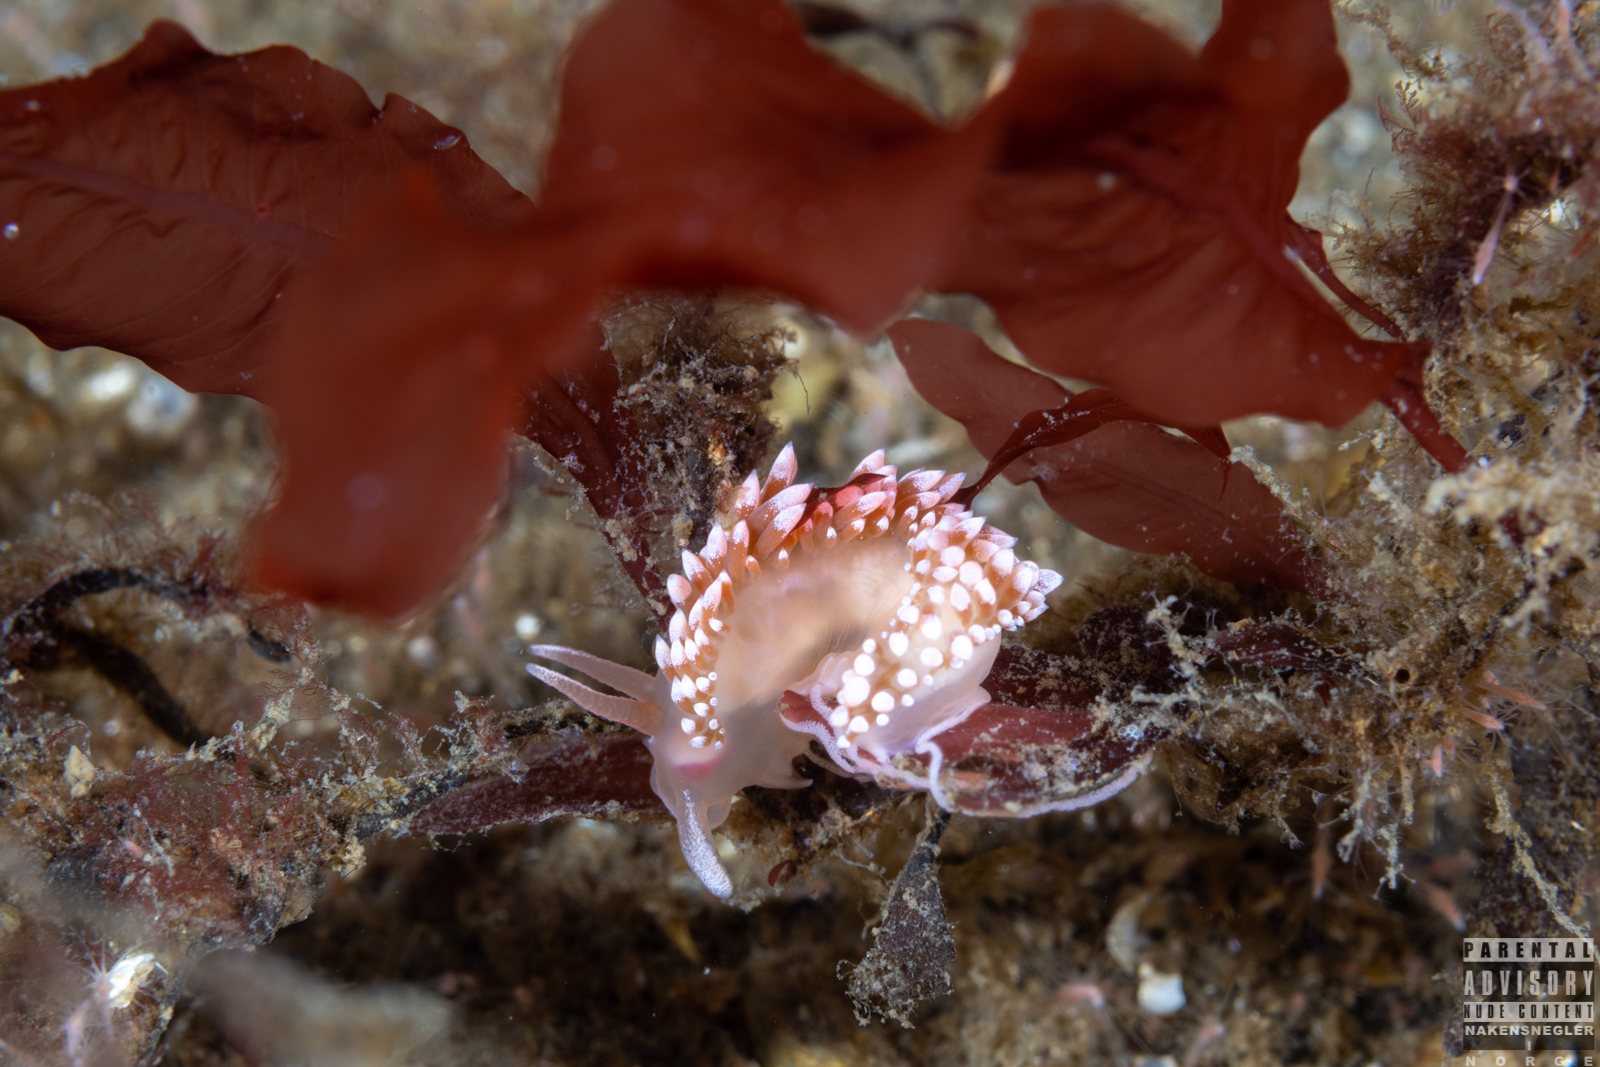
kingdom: Animalia
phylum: Mollusca
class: Gastropoda
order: Nudibranchia
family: Coryphellidae
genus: Coryphella
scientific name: Coryphella verrucosa
